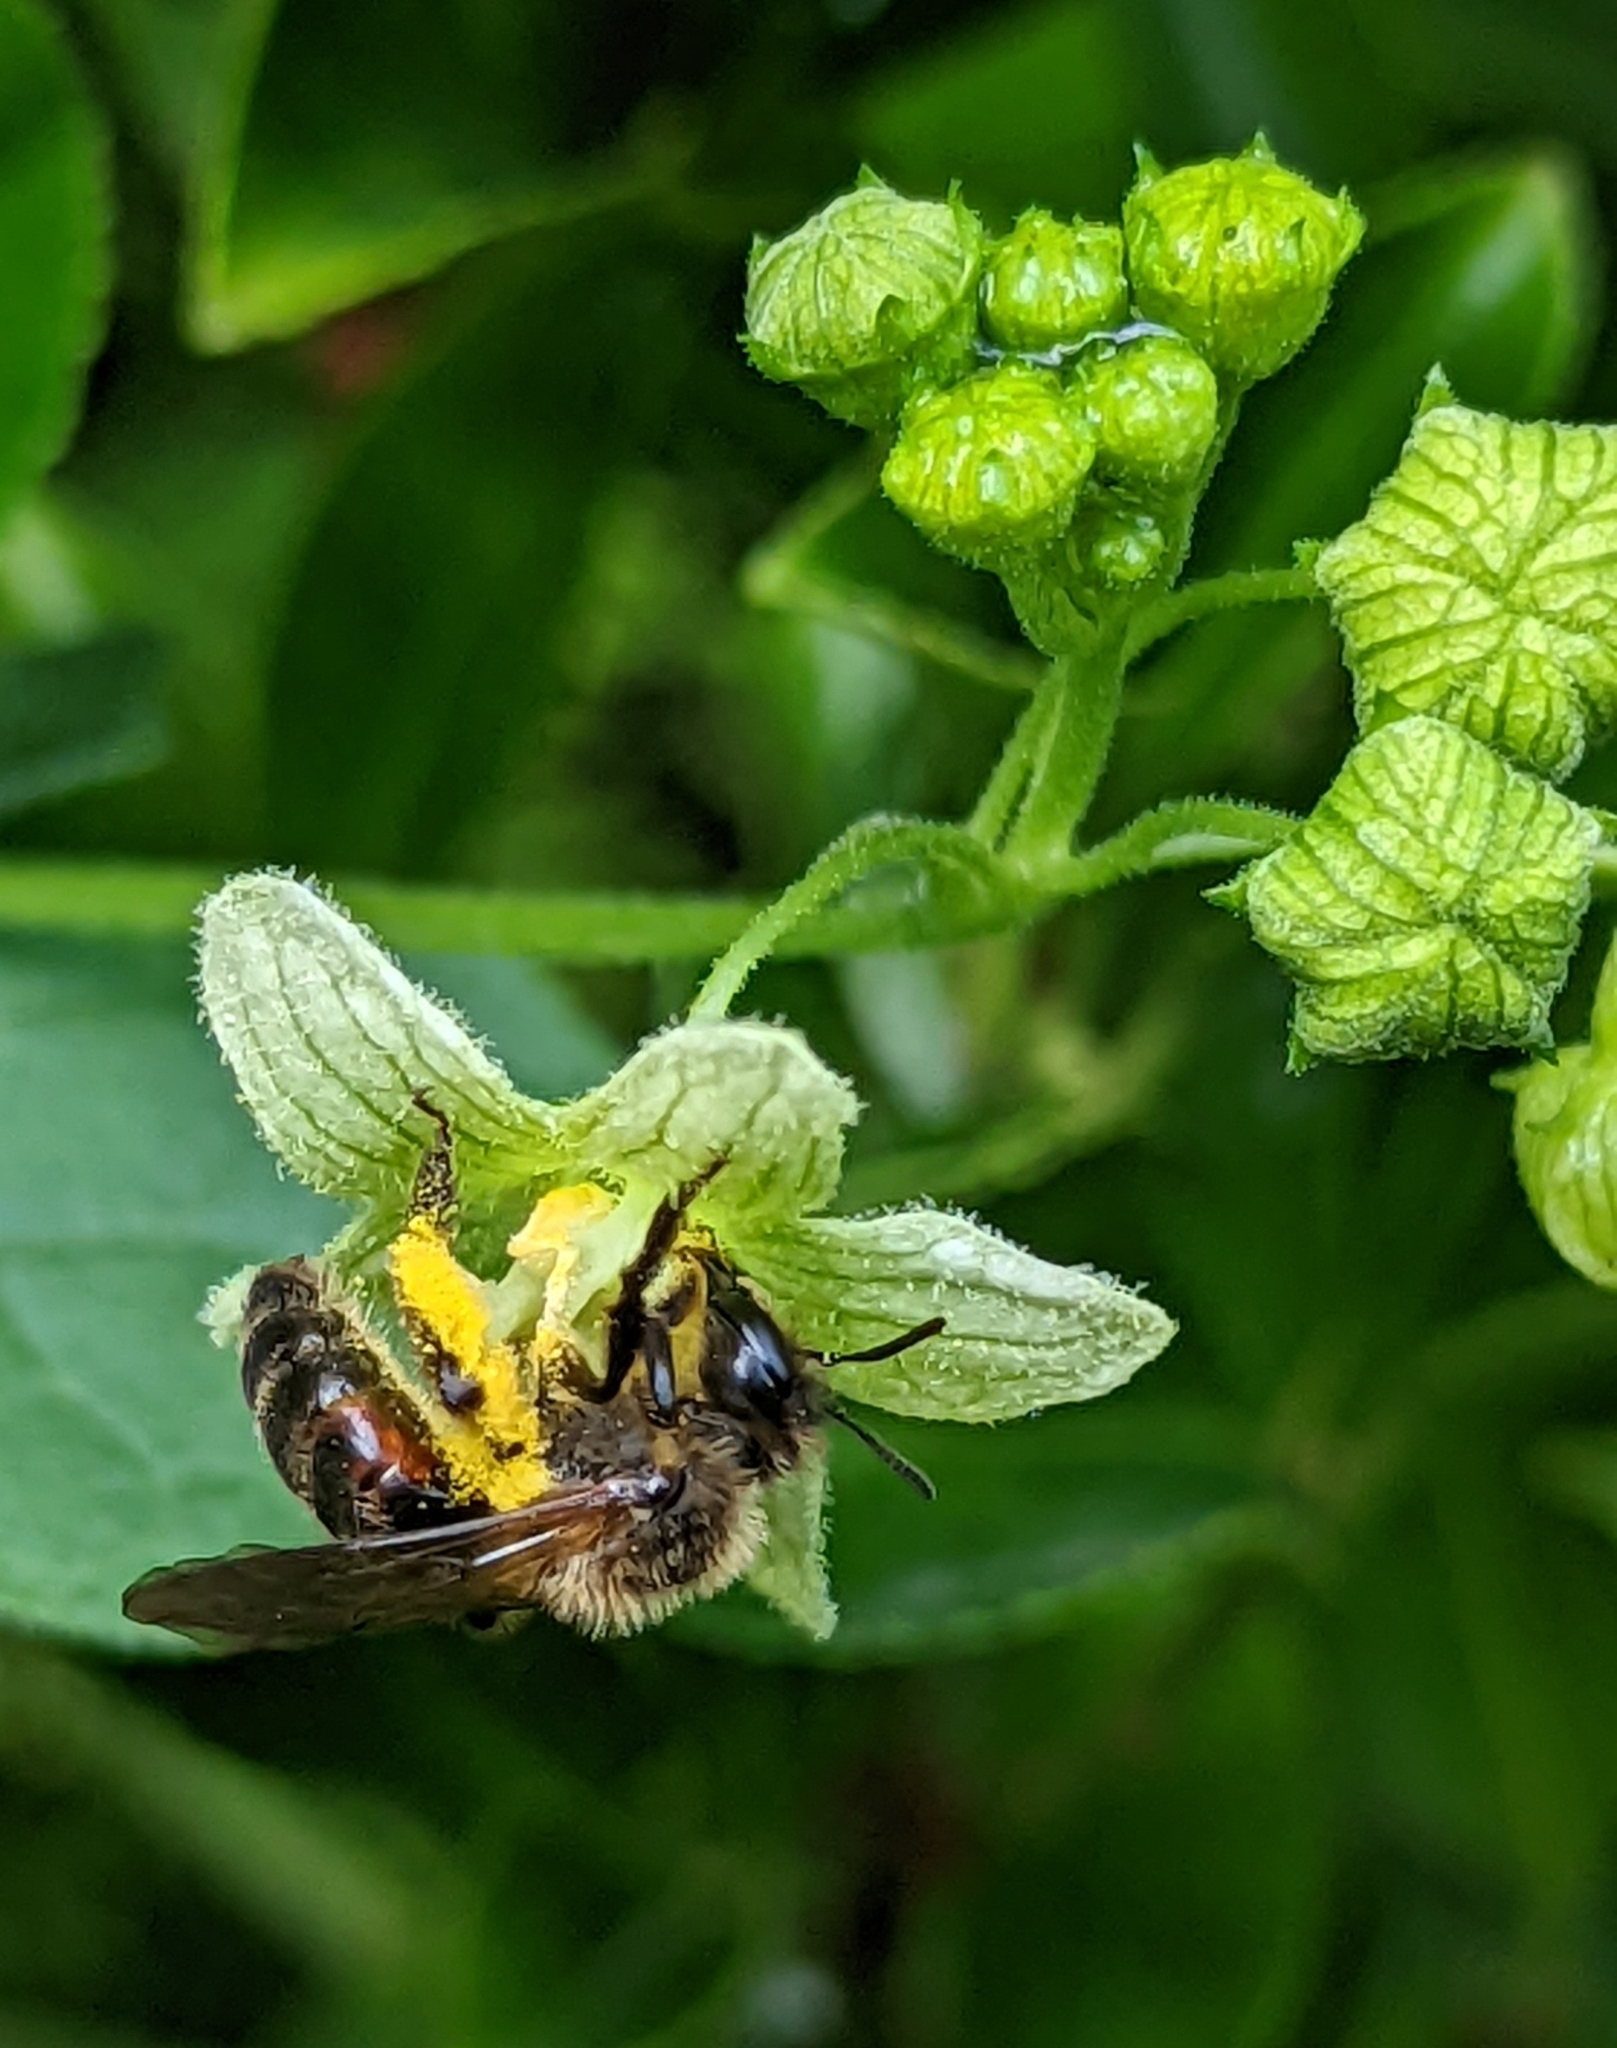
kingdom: Animalia
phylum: Arthropoda
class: Insecta
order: Hymenoptera
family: Andrenidae
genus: Andrena
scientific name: Andrena florea
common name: Bryony mining bee
